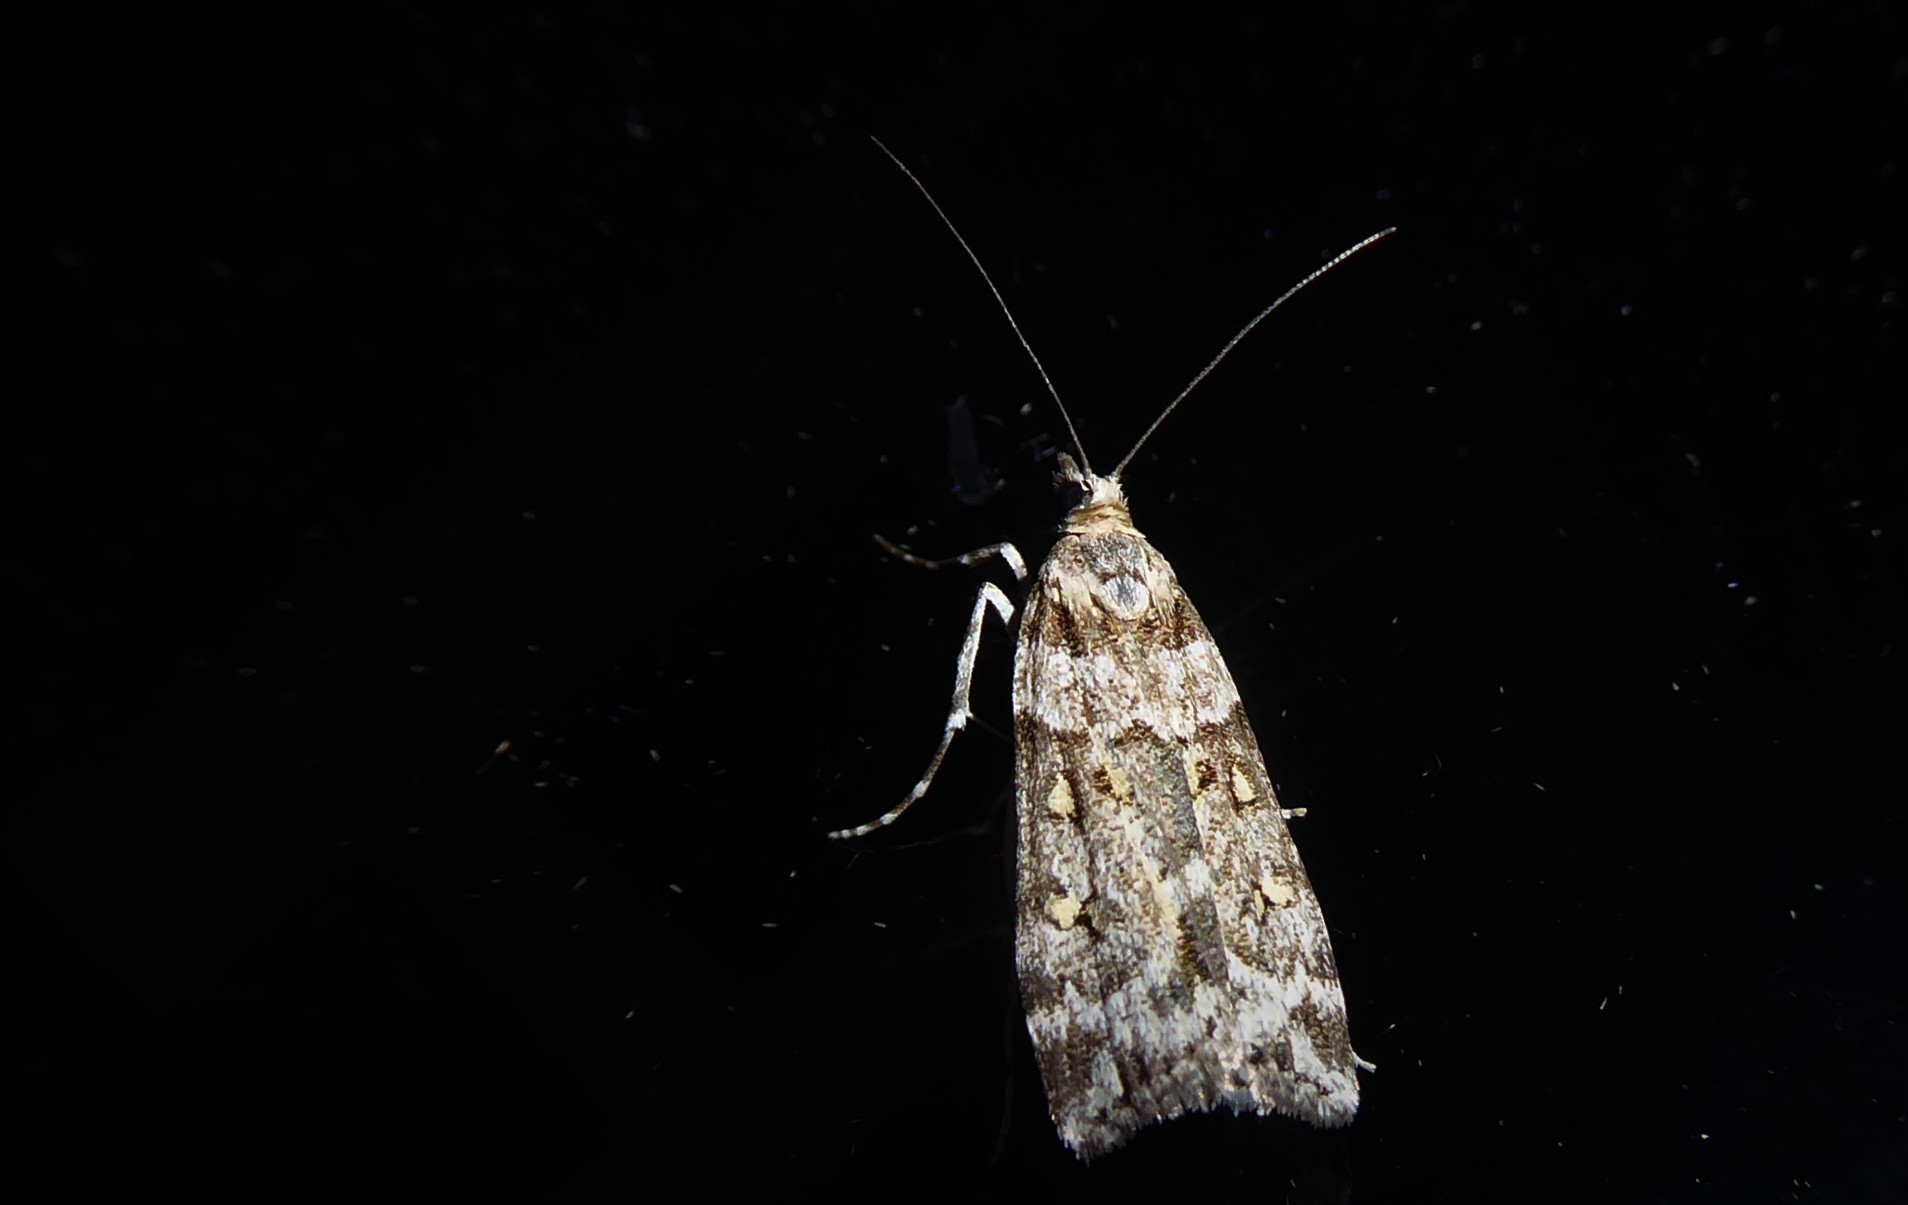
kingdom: Animalia
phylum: Arthropoda
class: Insecta
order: Lepidoptera
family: Crambidae
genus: Eudonia
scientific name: Eudonia diphtheralis
